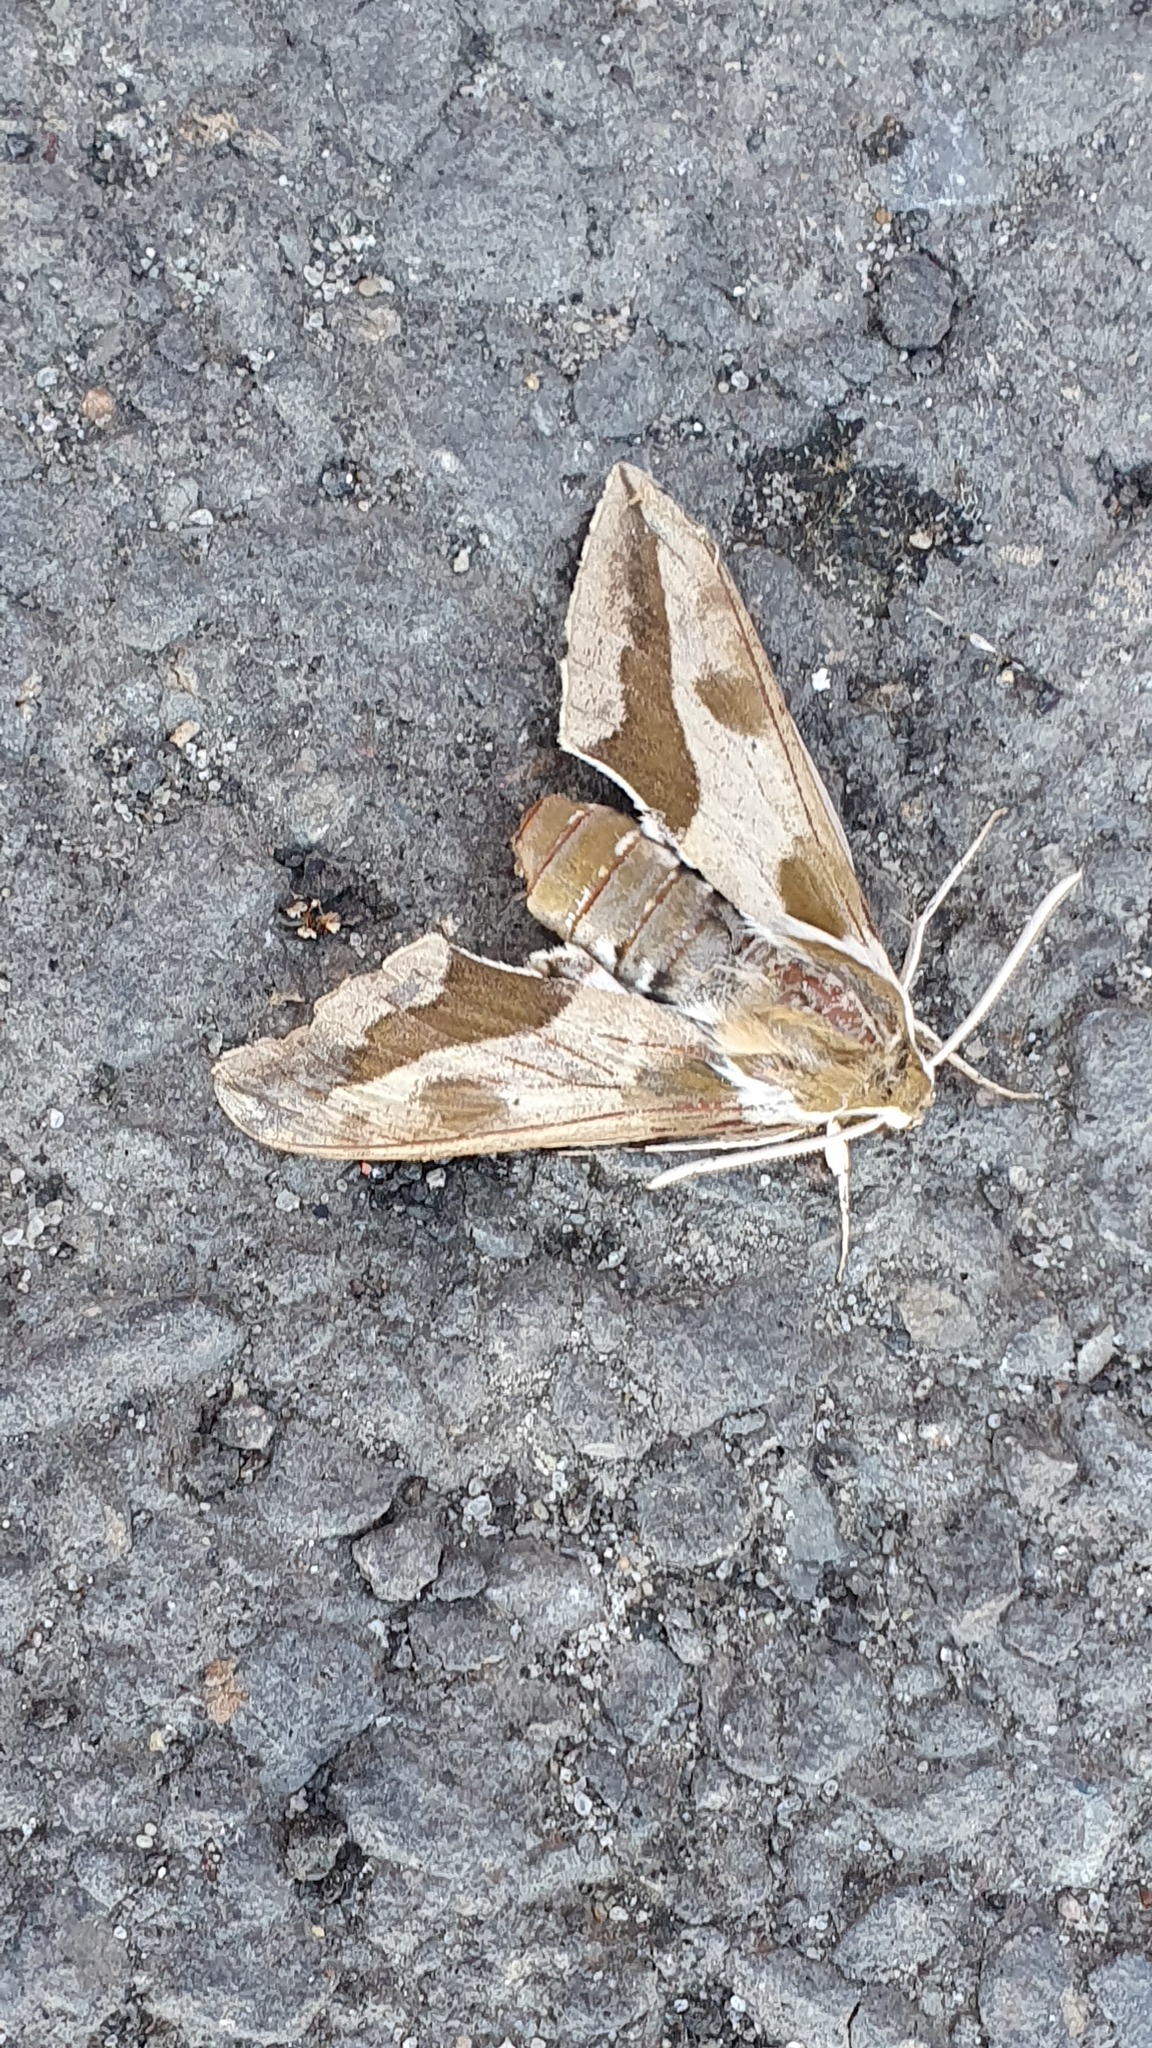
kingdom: Animalia
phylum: Arthropoda
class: Insecta
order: Lepidoptera
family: Sphingidae
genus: Hyles
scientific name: Hyles euphorbiae
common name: Spurge hawk-moth
